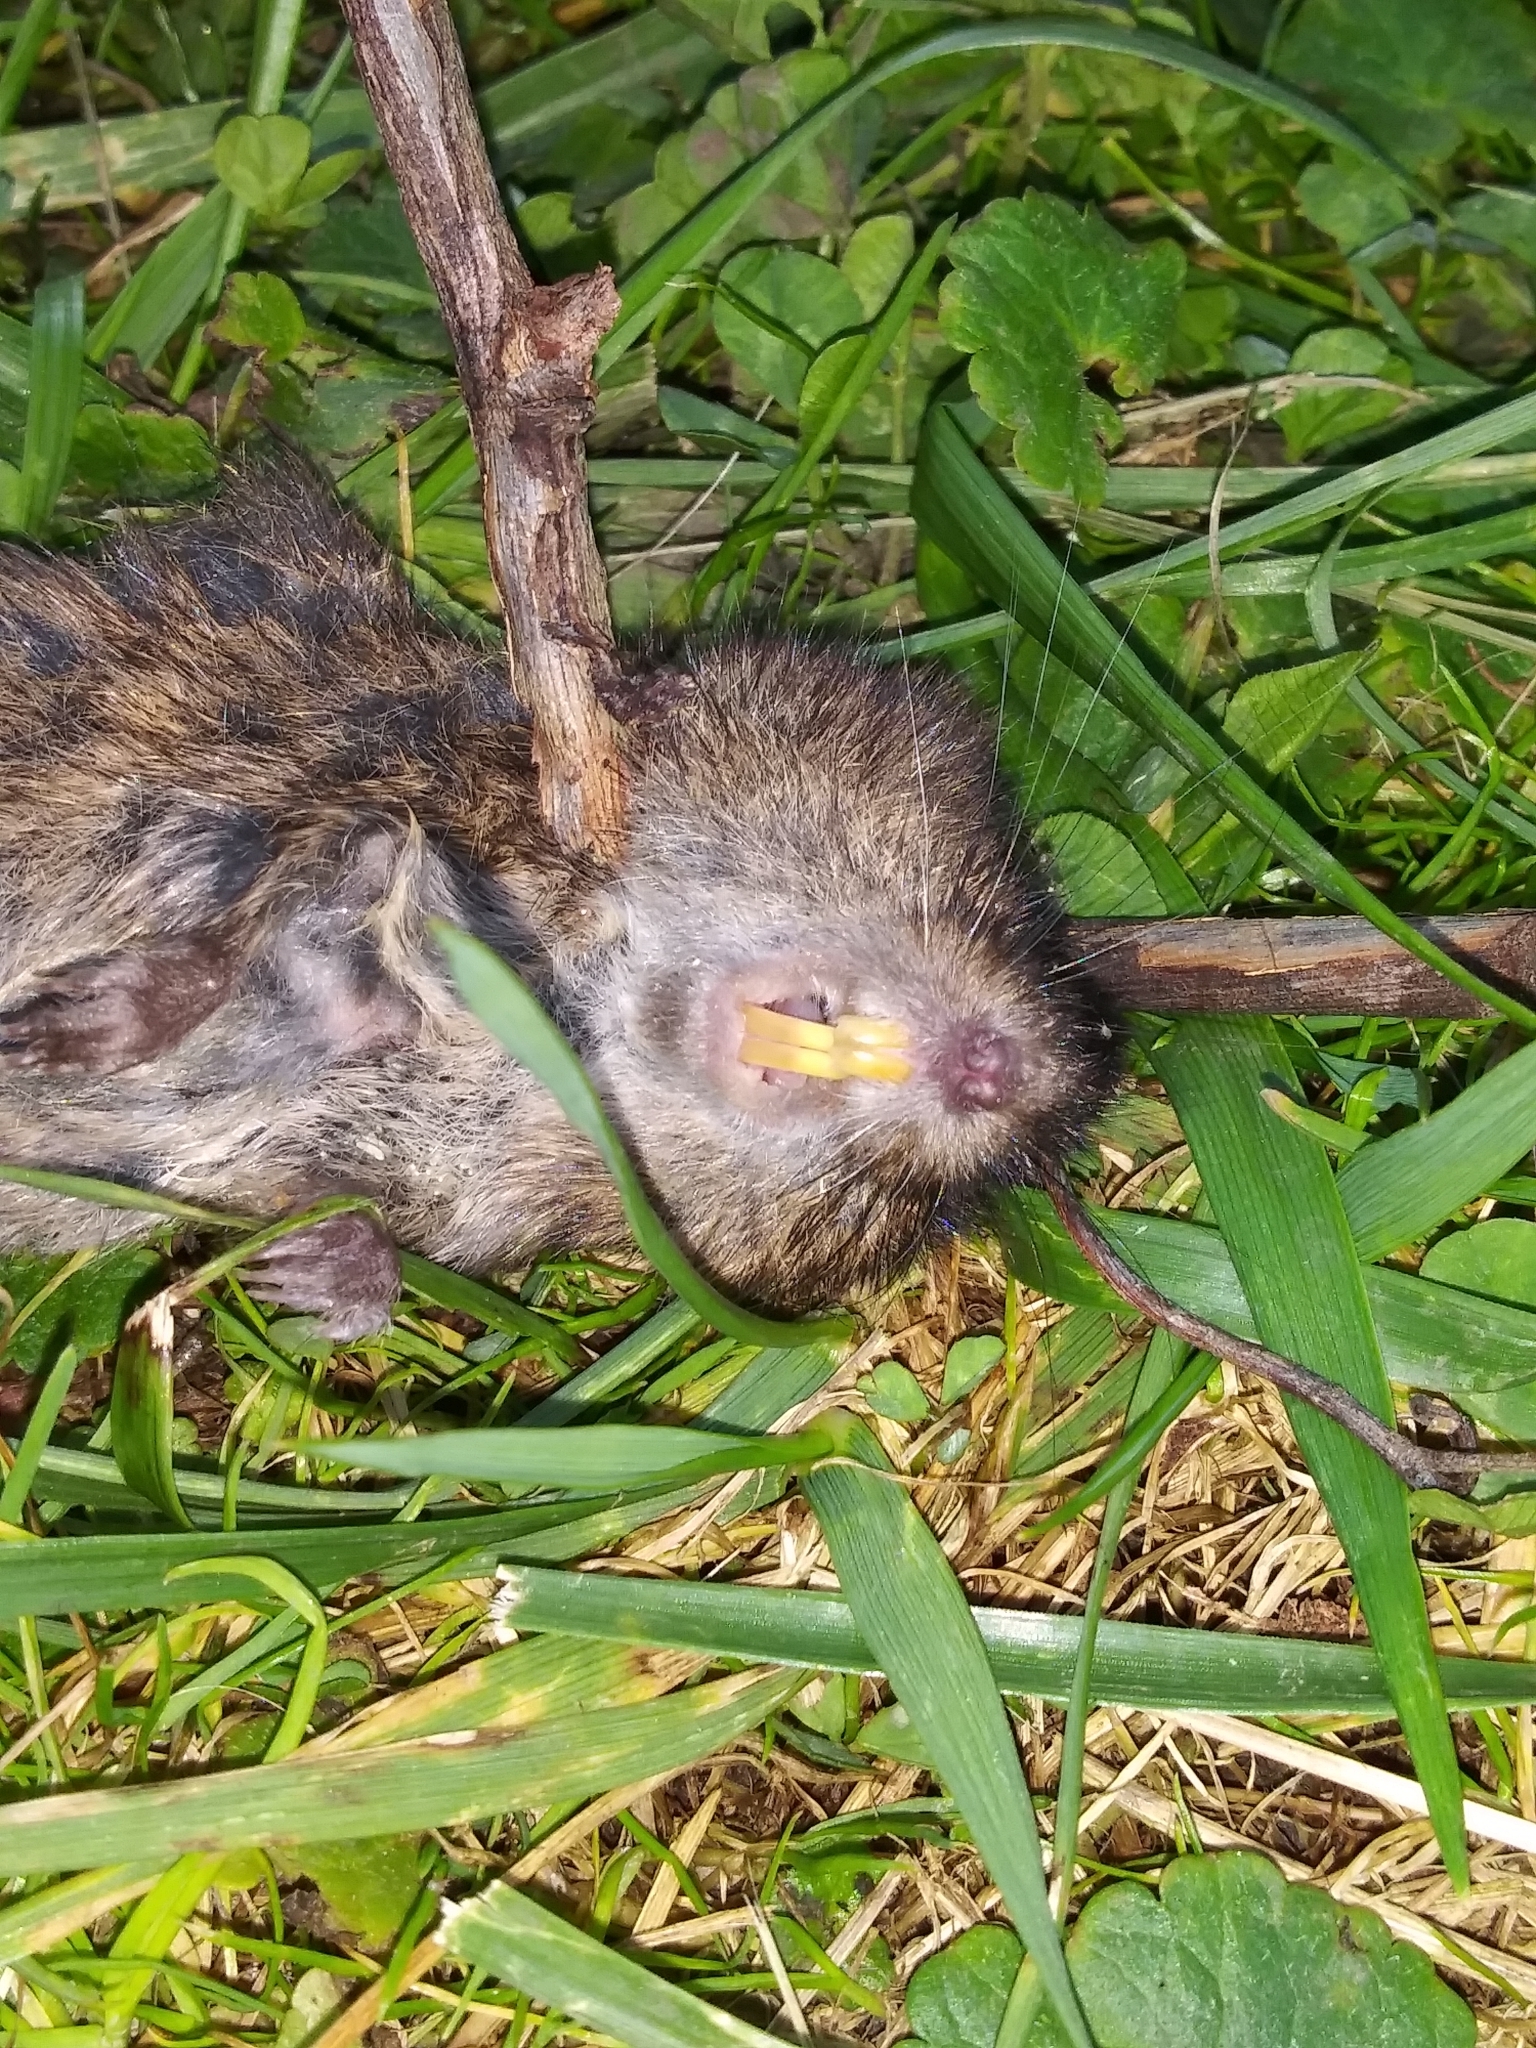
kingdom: Animalia
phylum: Chordata
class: Mammalia
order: Rodentia
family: Cricetidae
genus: Microtus
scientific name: Microtus pennsylvanicus
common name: Meadow vole
